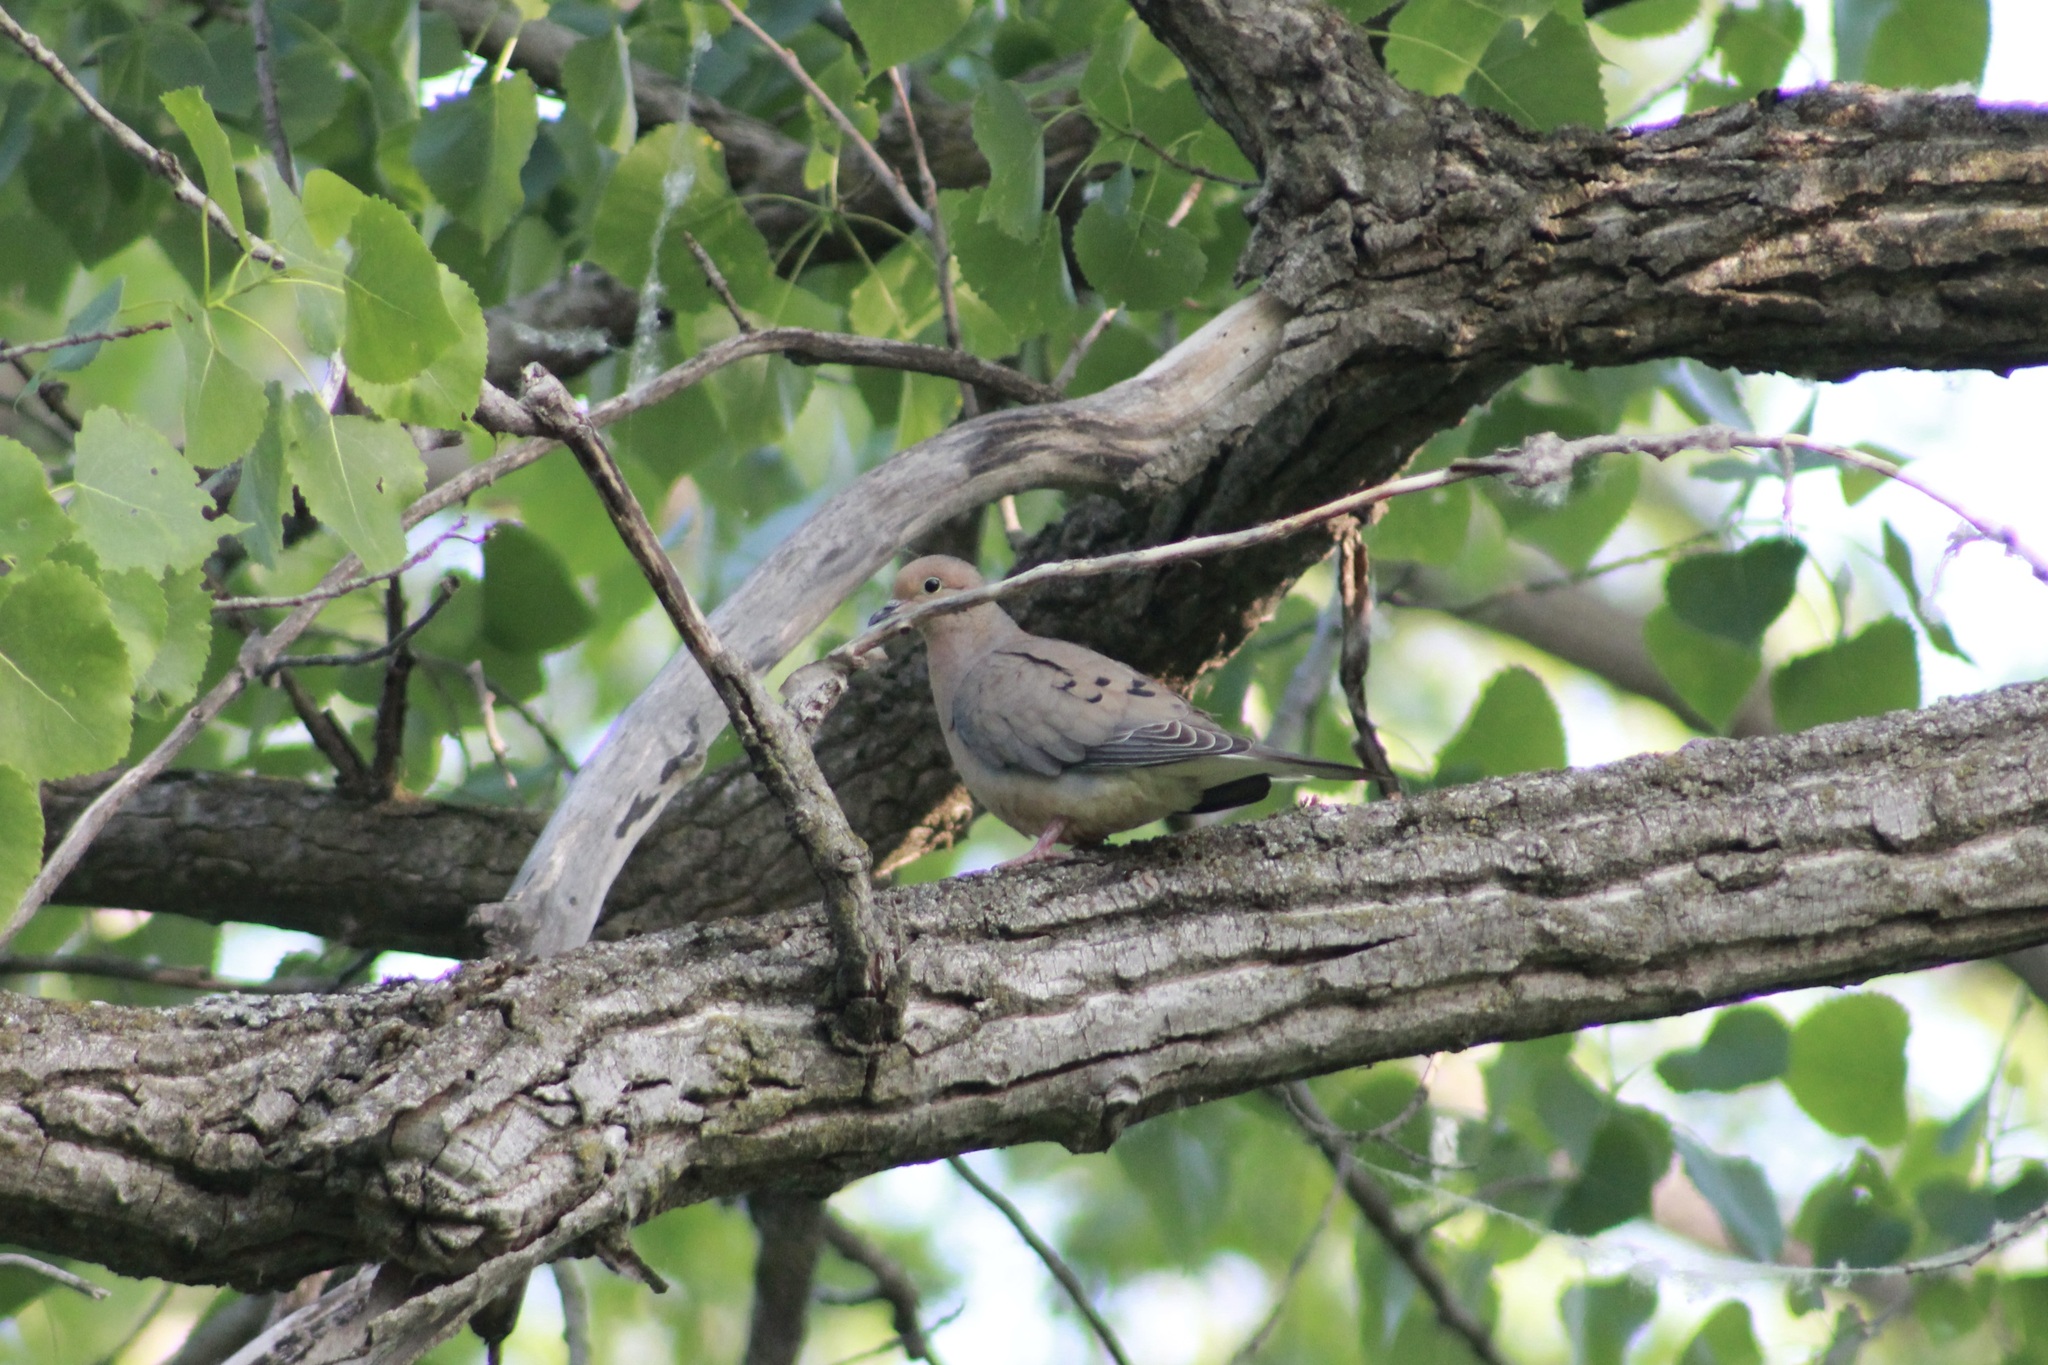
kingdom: Animalia
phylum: Chordata
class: Aves
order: Columbiformes
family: Columbidae
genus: Zenaida
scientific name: Zenaida macroura
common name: Mourning dove
